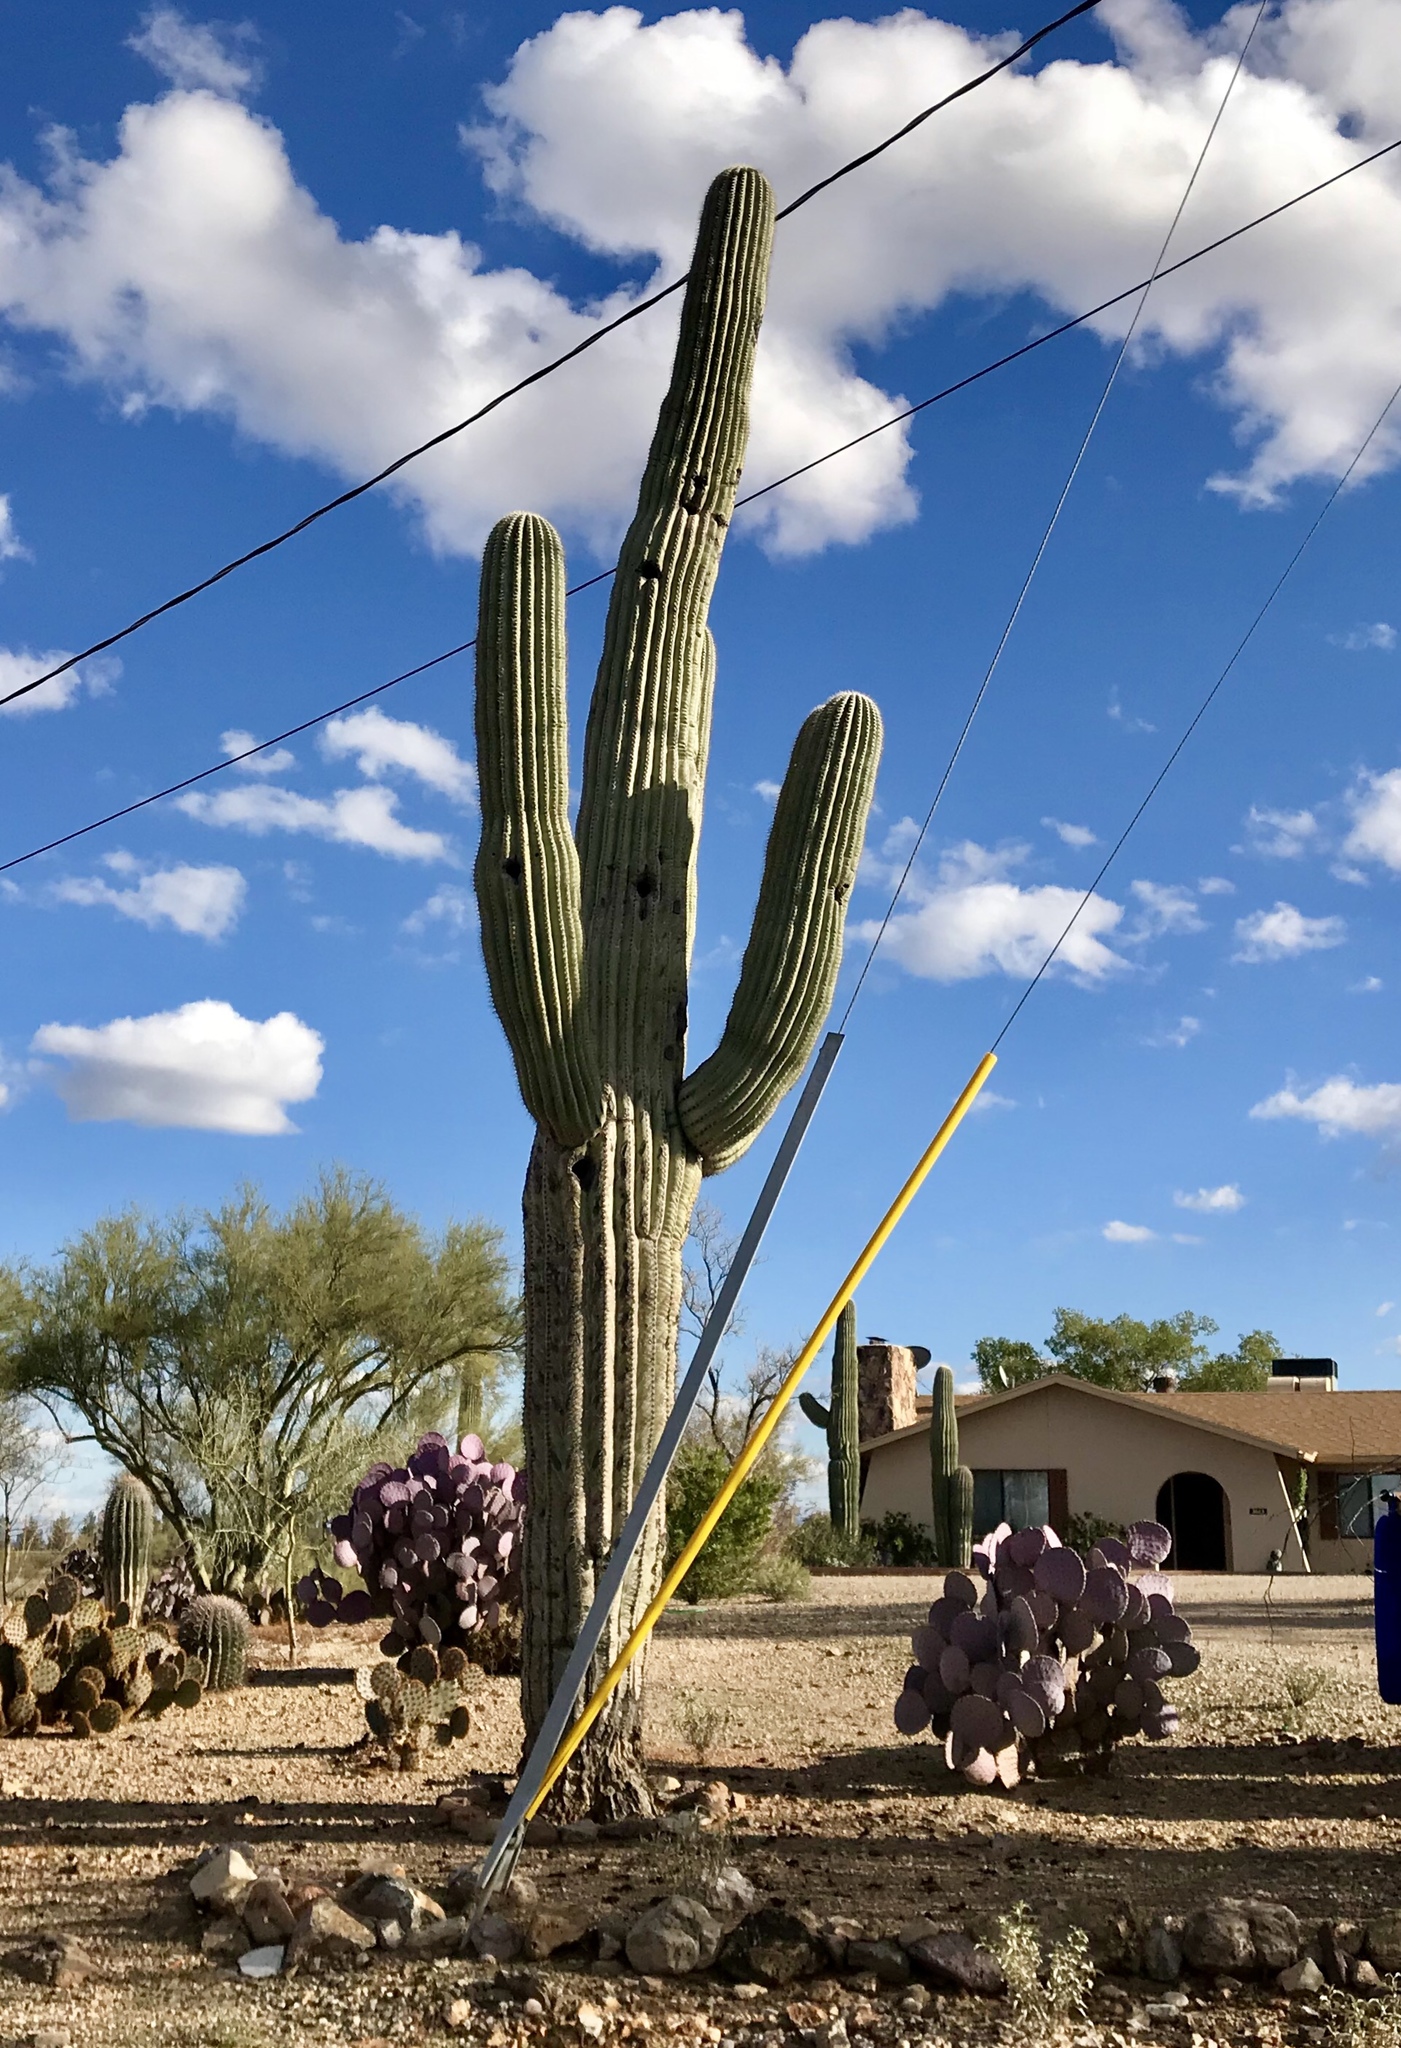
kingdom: Plantae
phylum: Tracheophyta
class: Magnoliopsida
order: Caryophyllales
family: Cactaceae
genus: Carnegiea
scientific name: Carnegiea gigantea
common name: Saguaro
